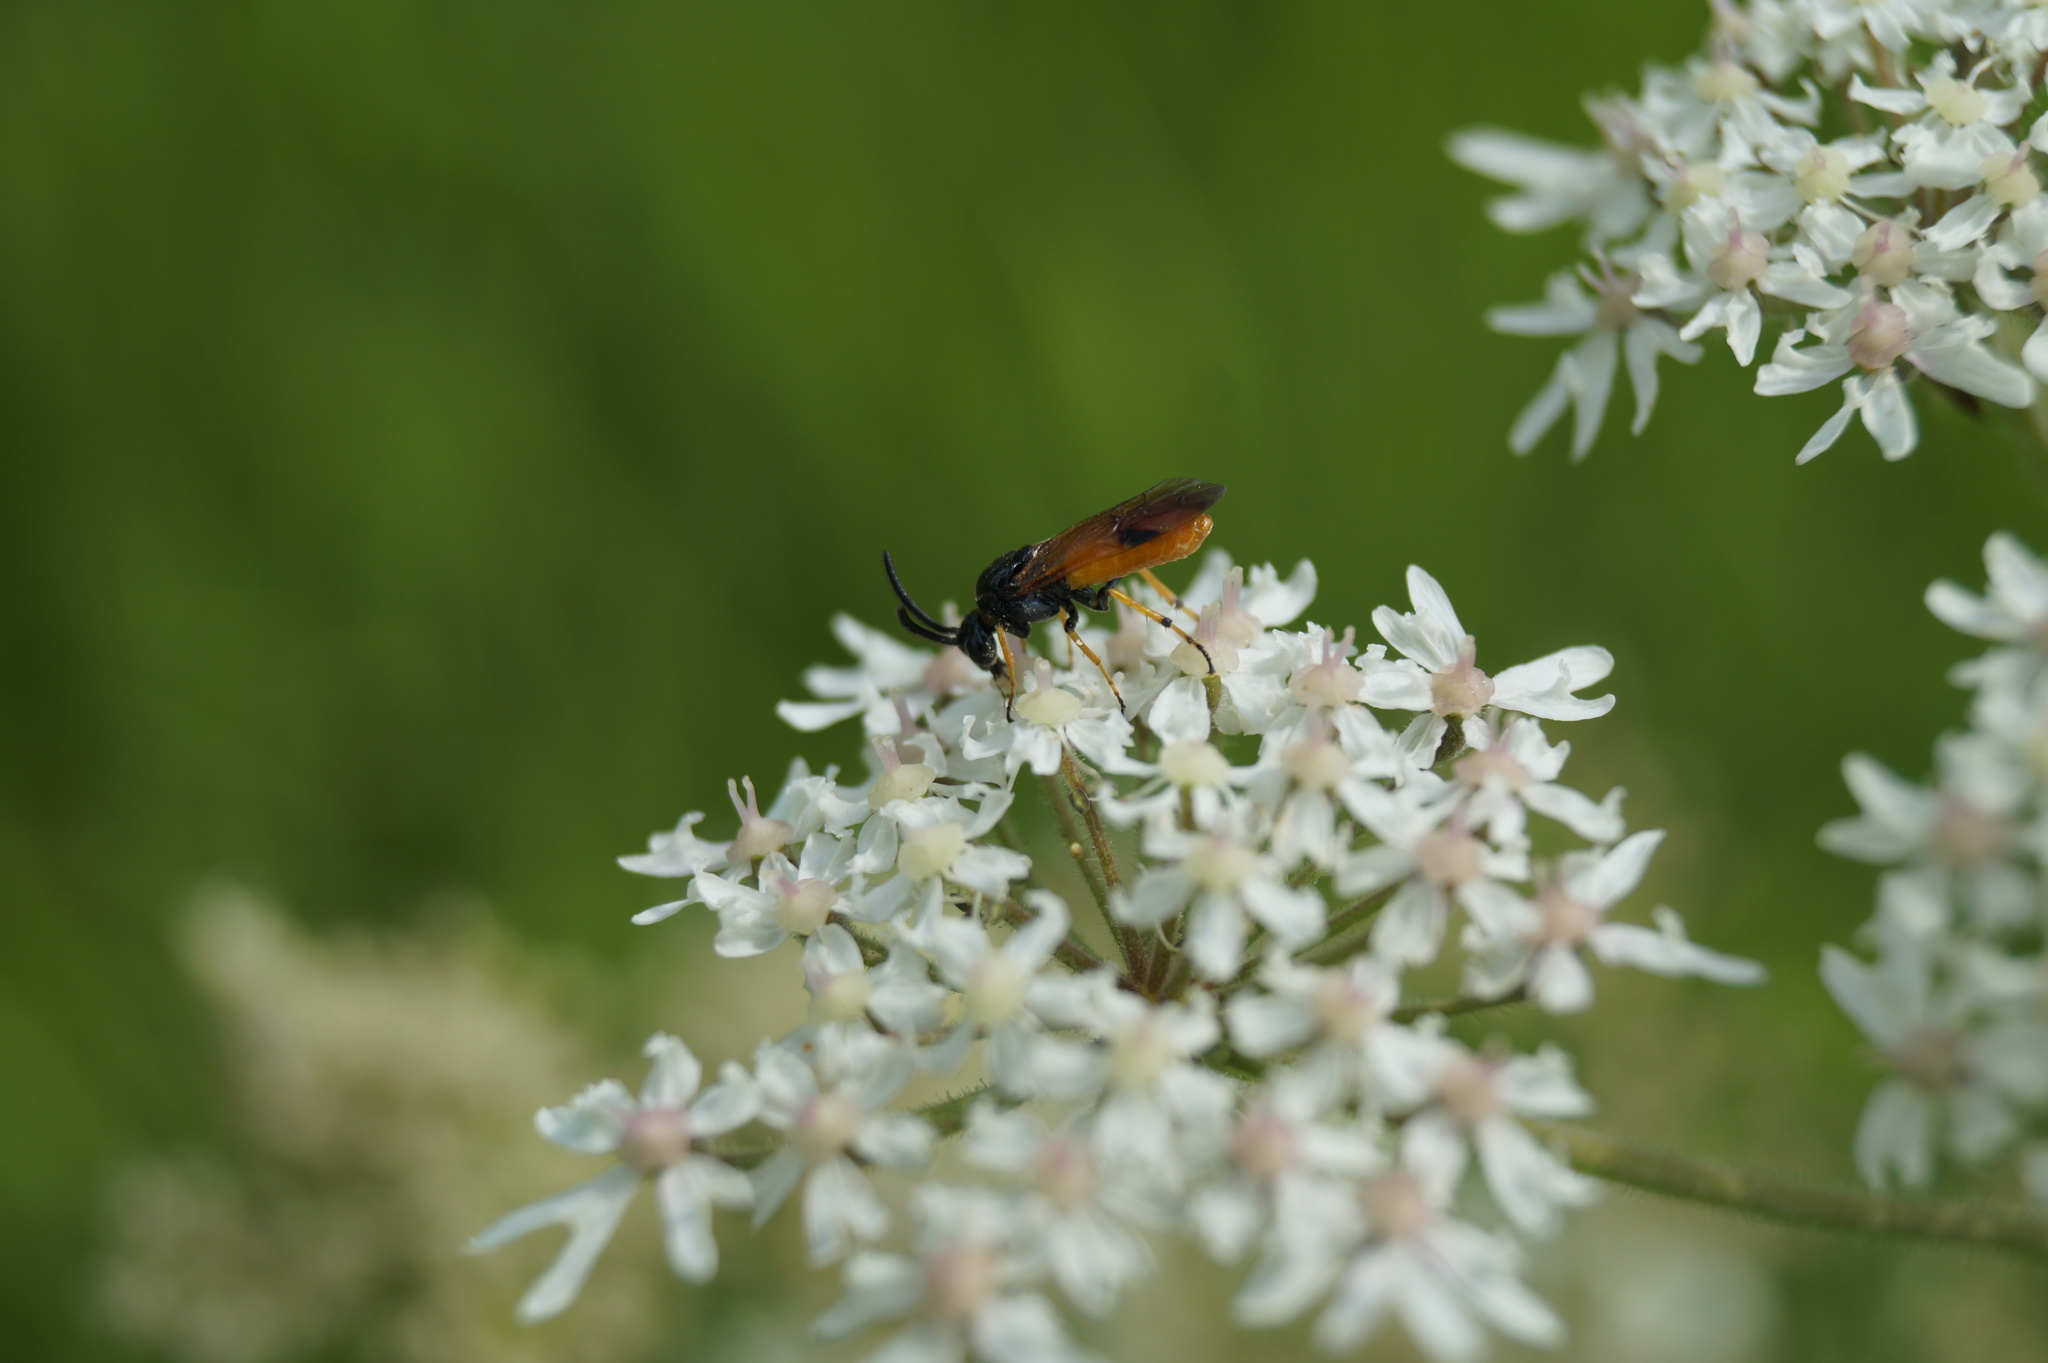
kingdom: Animalia
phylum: Arthropoda
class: Insecta
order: Hymenoptera
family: Argidae
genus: Arge
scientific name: Arge melanochra
